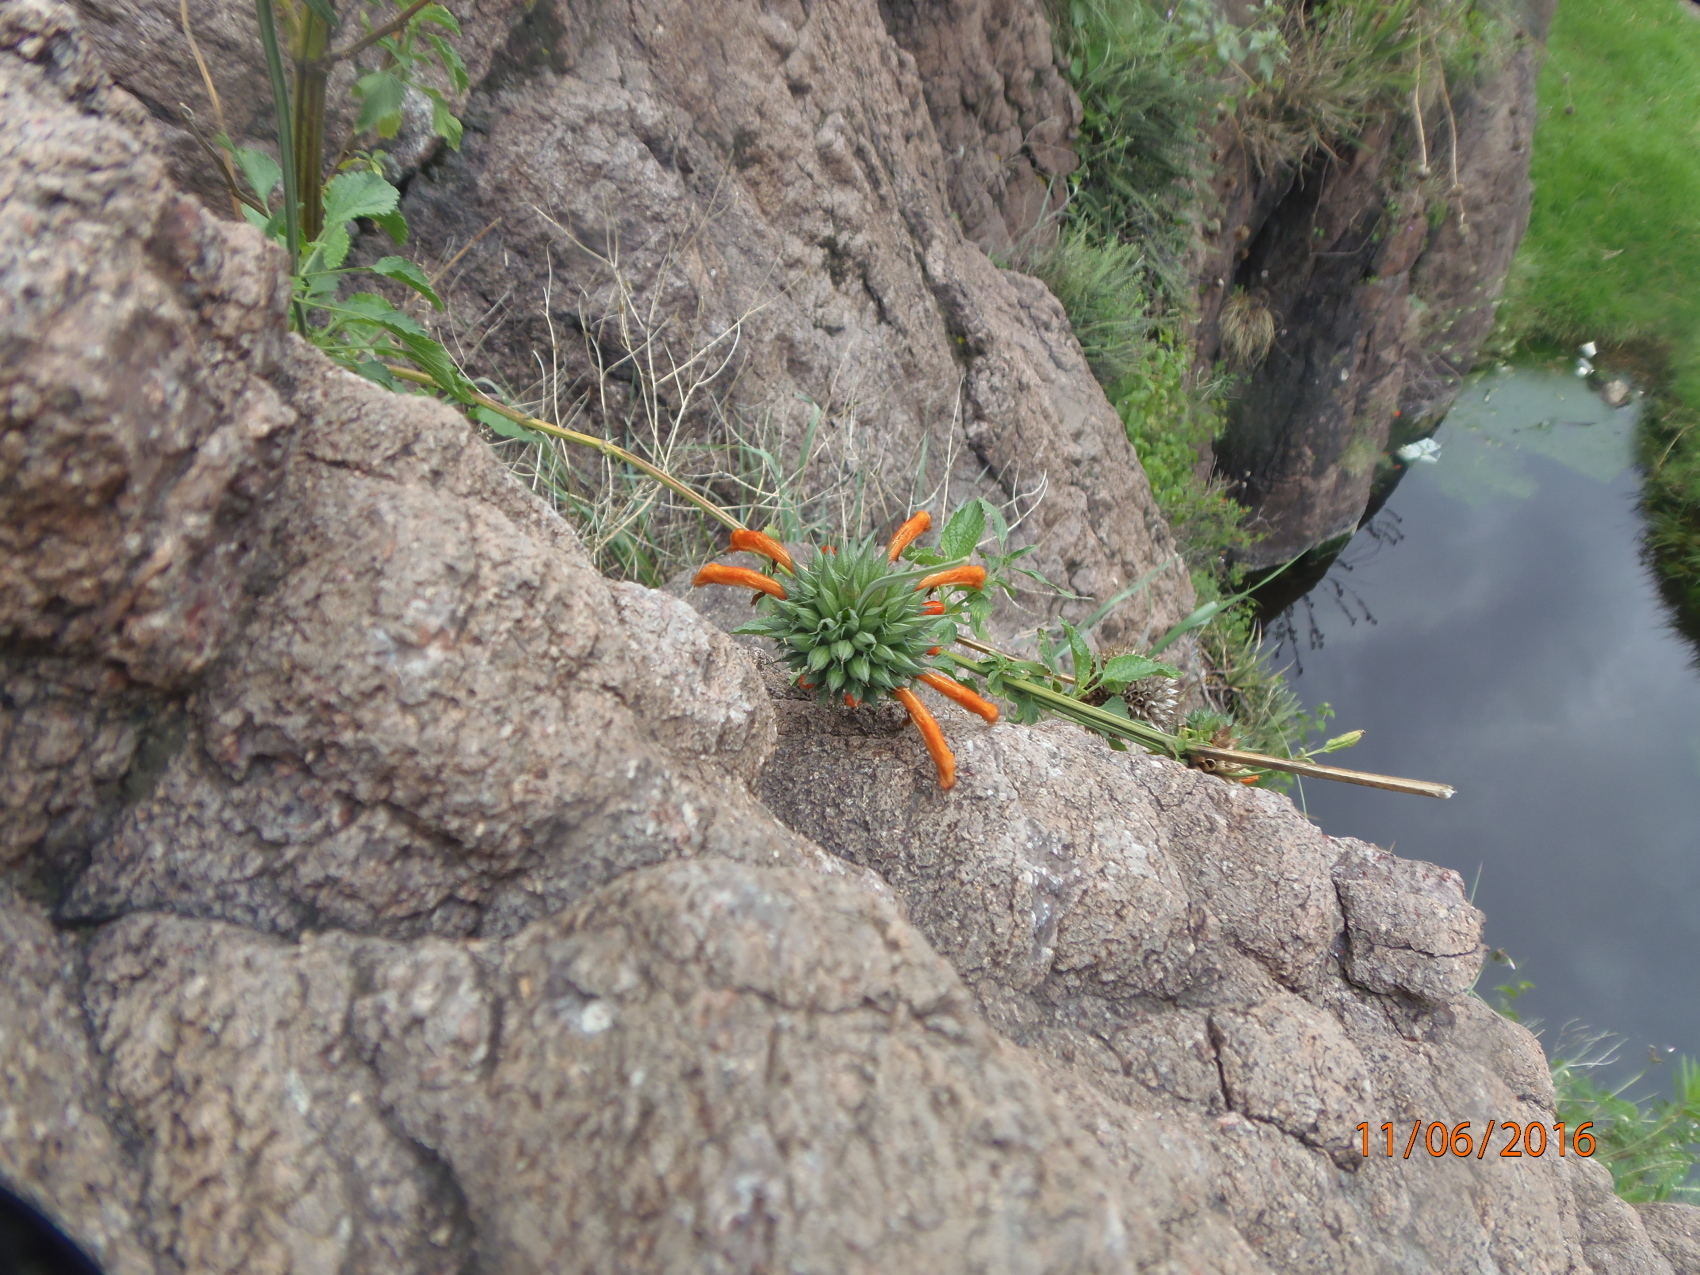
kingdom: Plantae
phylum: Tracheophyta
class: Magnoliopsida
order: Lamiales
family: Lamiaceae
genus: Leonotis
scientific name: Leonotis nepetifolia
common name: Christmas candlestick
